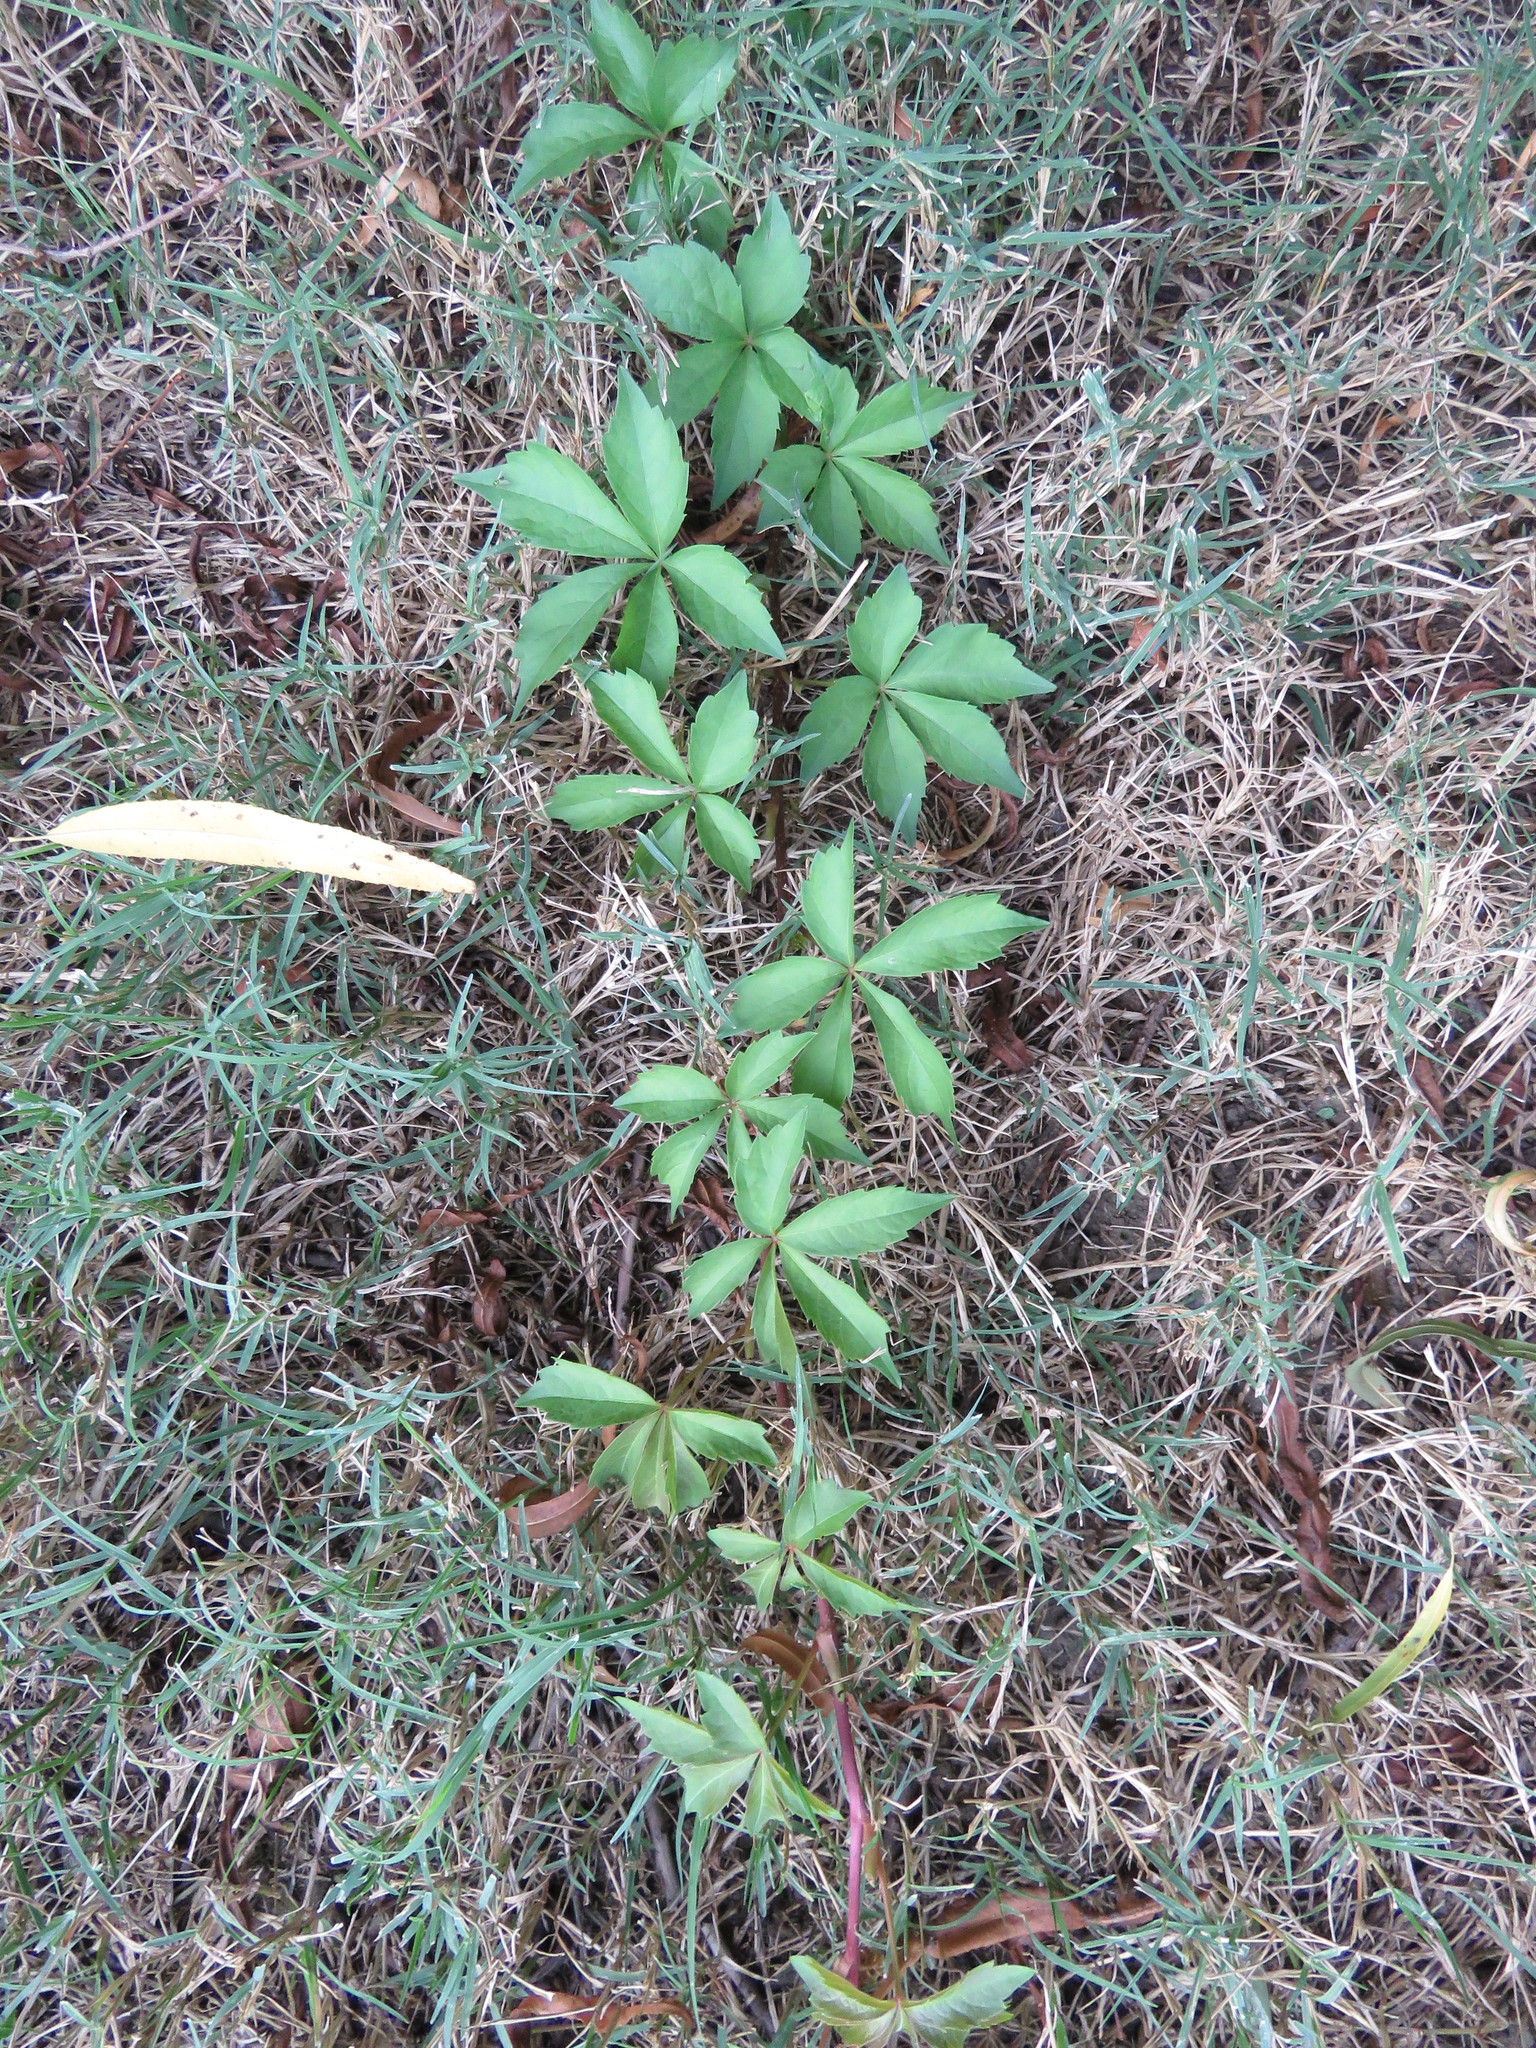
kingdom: Plantae
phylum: Tracheophyta
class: Magnoliopsida
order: Vitales
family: Vitaceae
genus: Parthenocissus
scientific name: Parthenocissus quinquefolia
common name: Virginia-creeper
